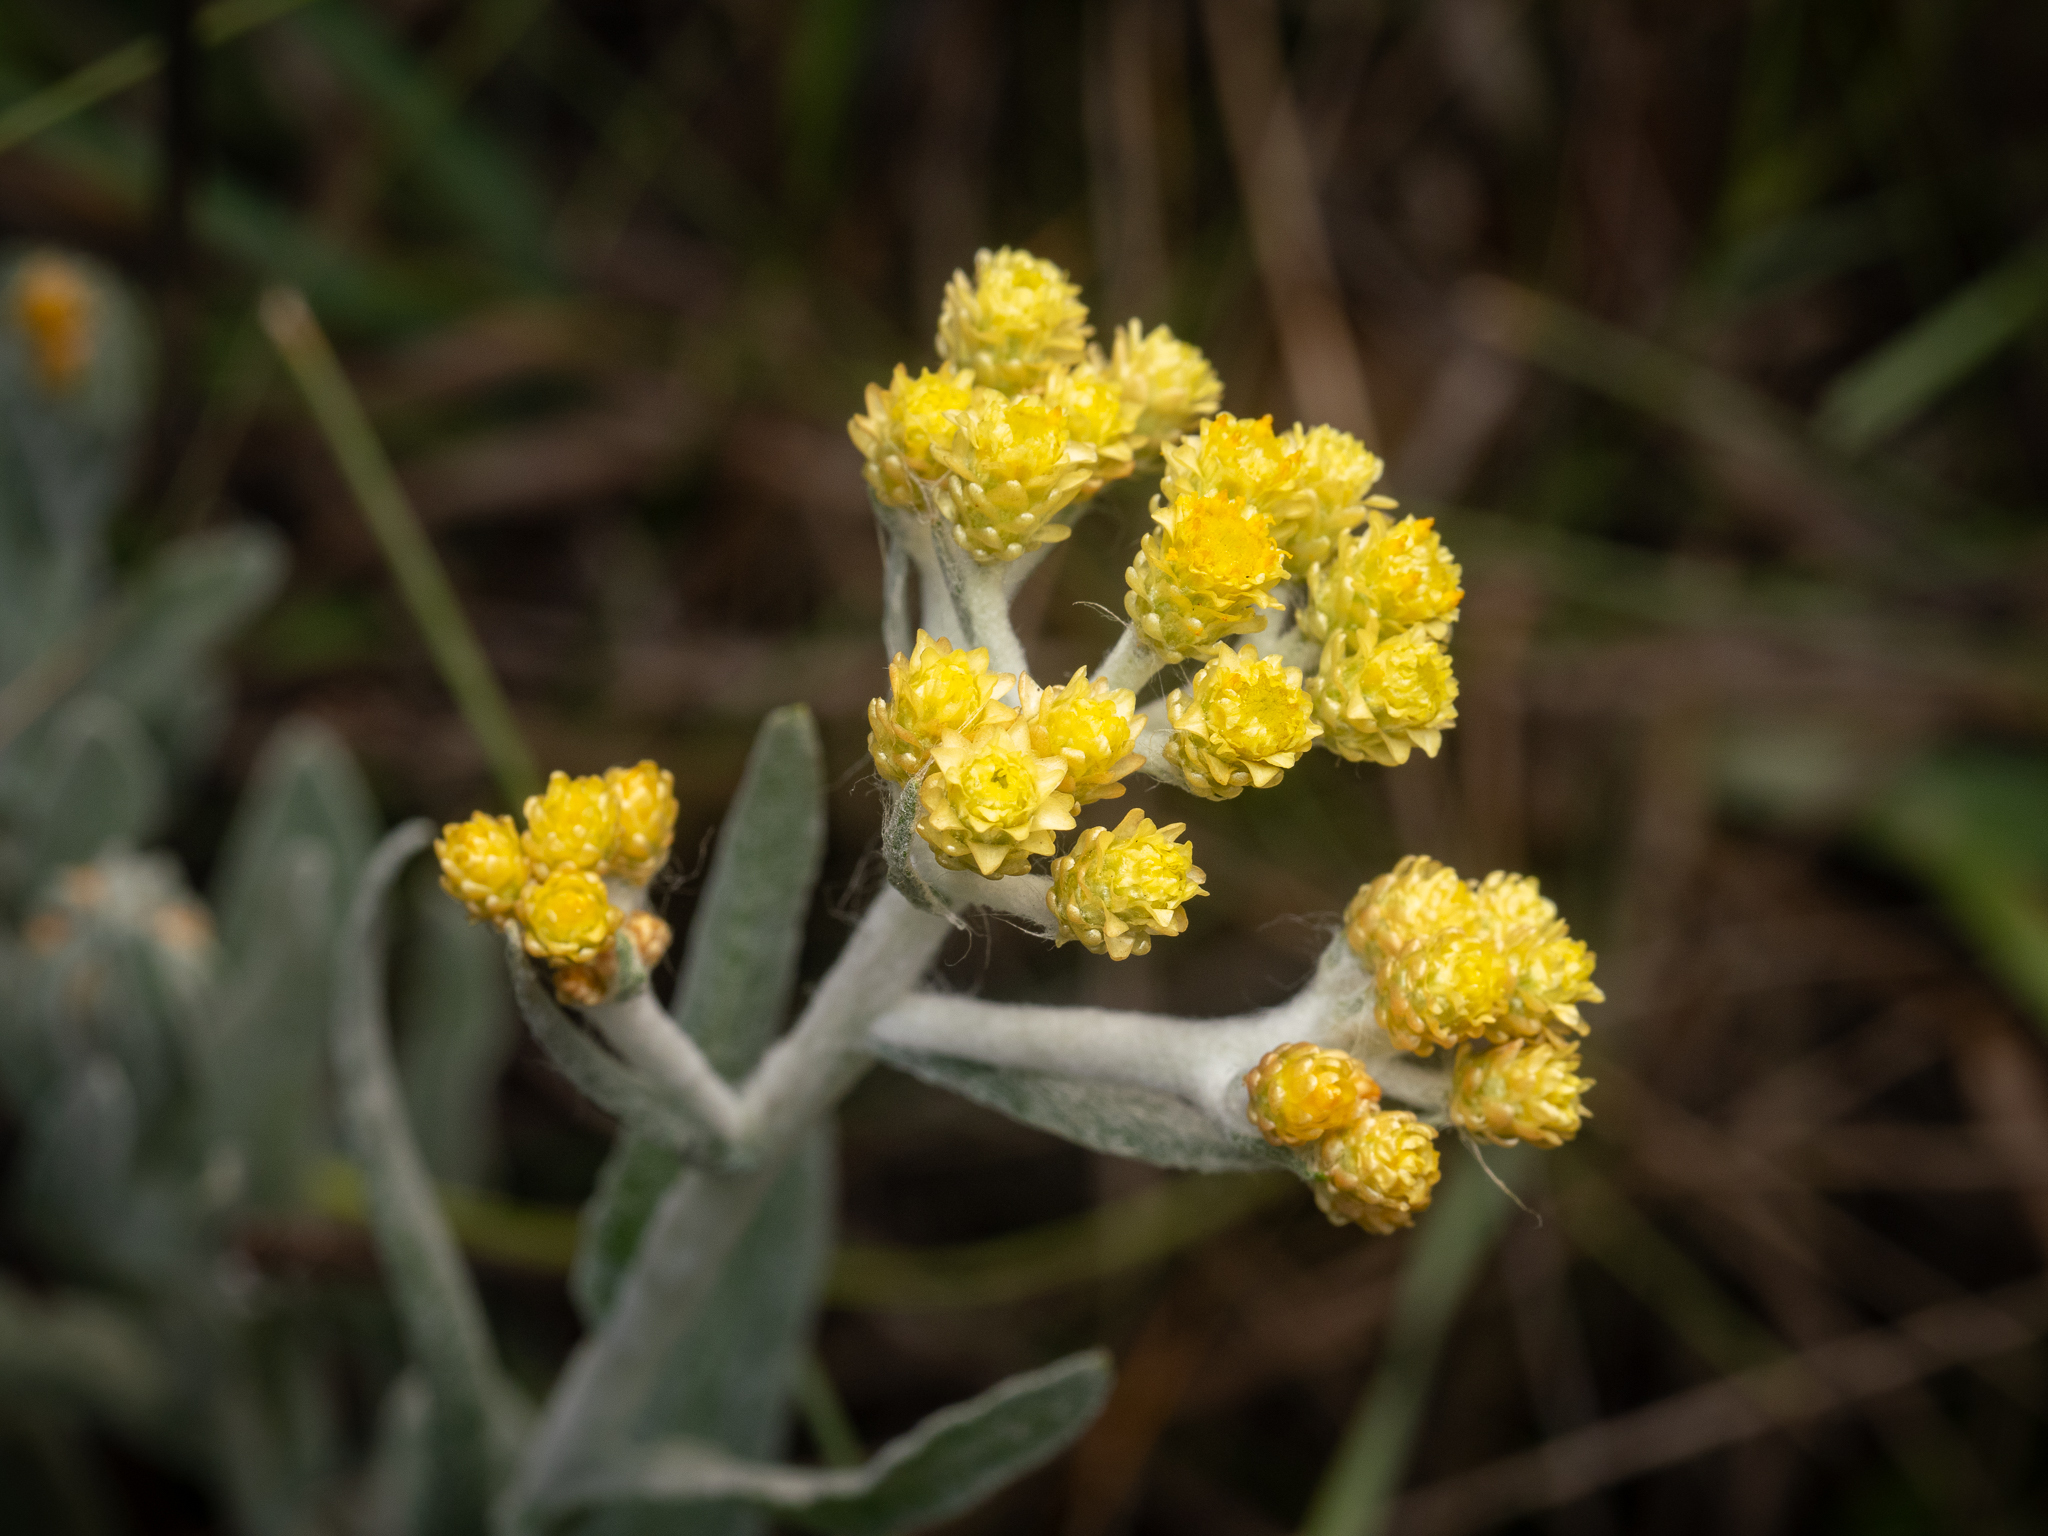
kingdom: Plantae
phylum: Tracheophyta
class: Magnoliopsida
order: Asterales
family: Asteraceae
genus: Helichrysum
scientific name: Helichrysum arenarium
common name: Strawflower
